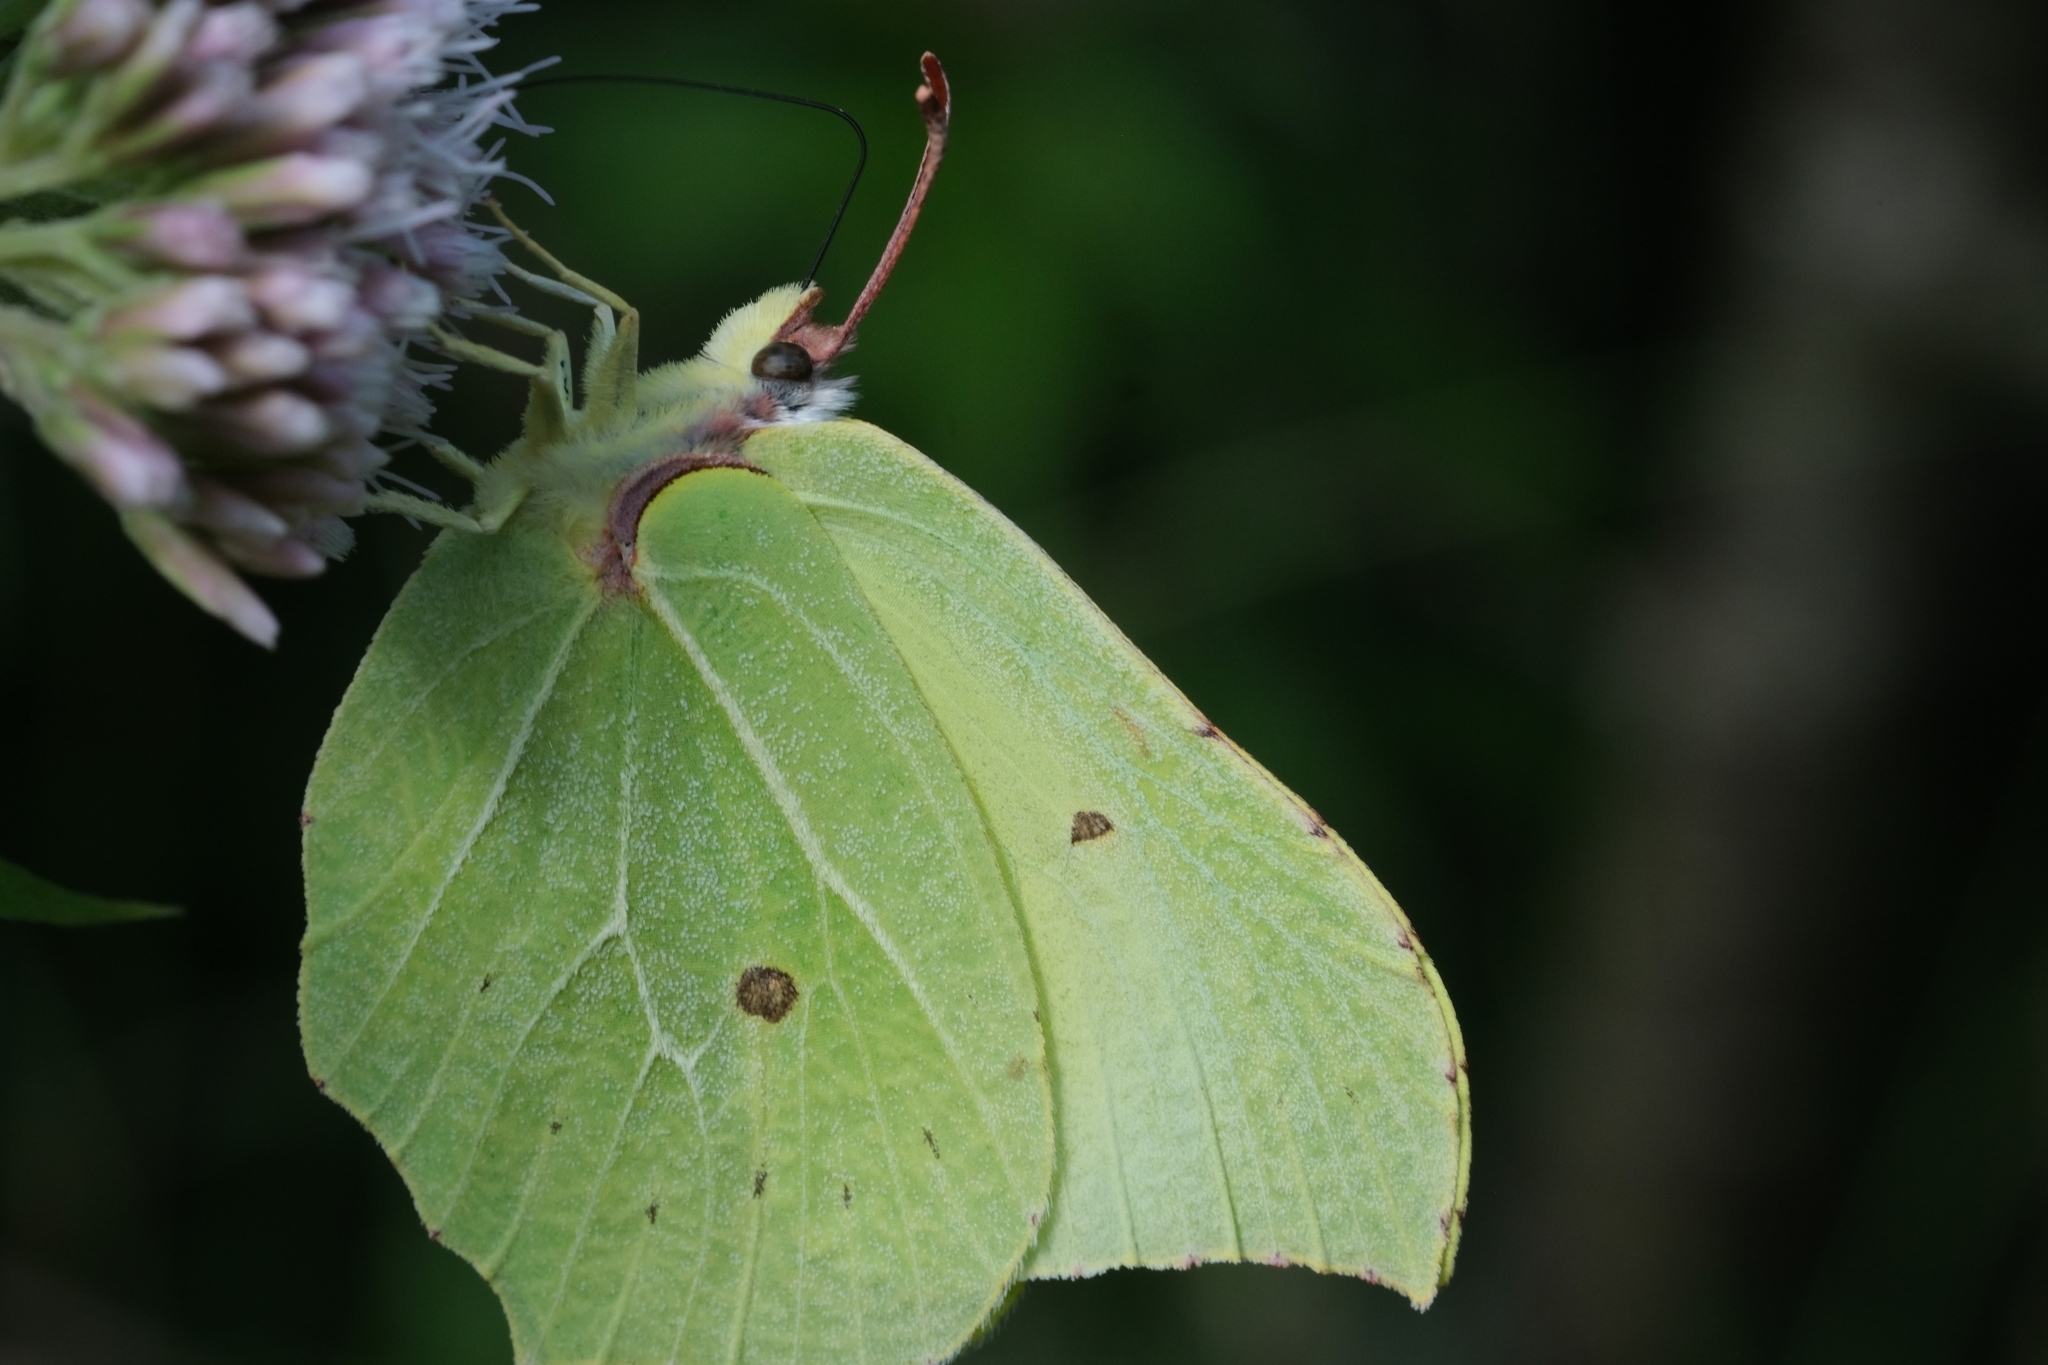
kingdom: Animalia
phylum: Arthropoda
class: Insecta
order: Lepidoptera
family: Pieridae
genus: Gonepteryx
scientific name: Gonepteryx rhamni
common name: Brimstone
